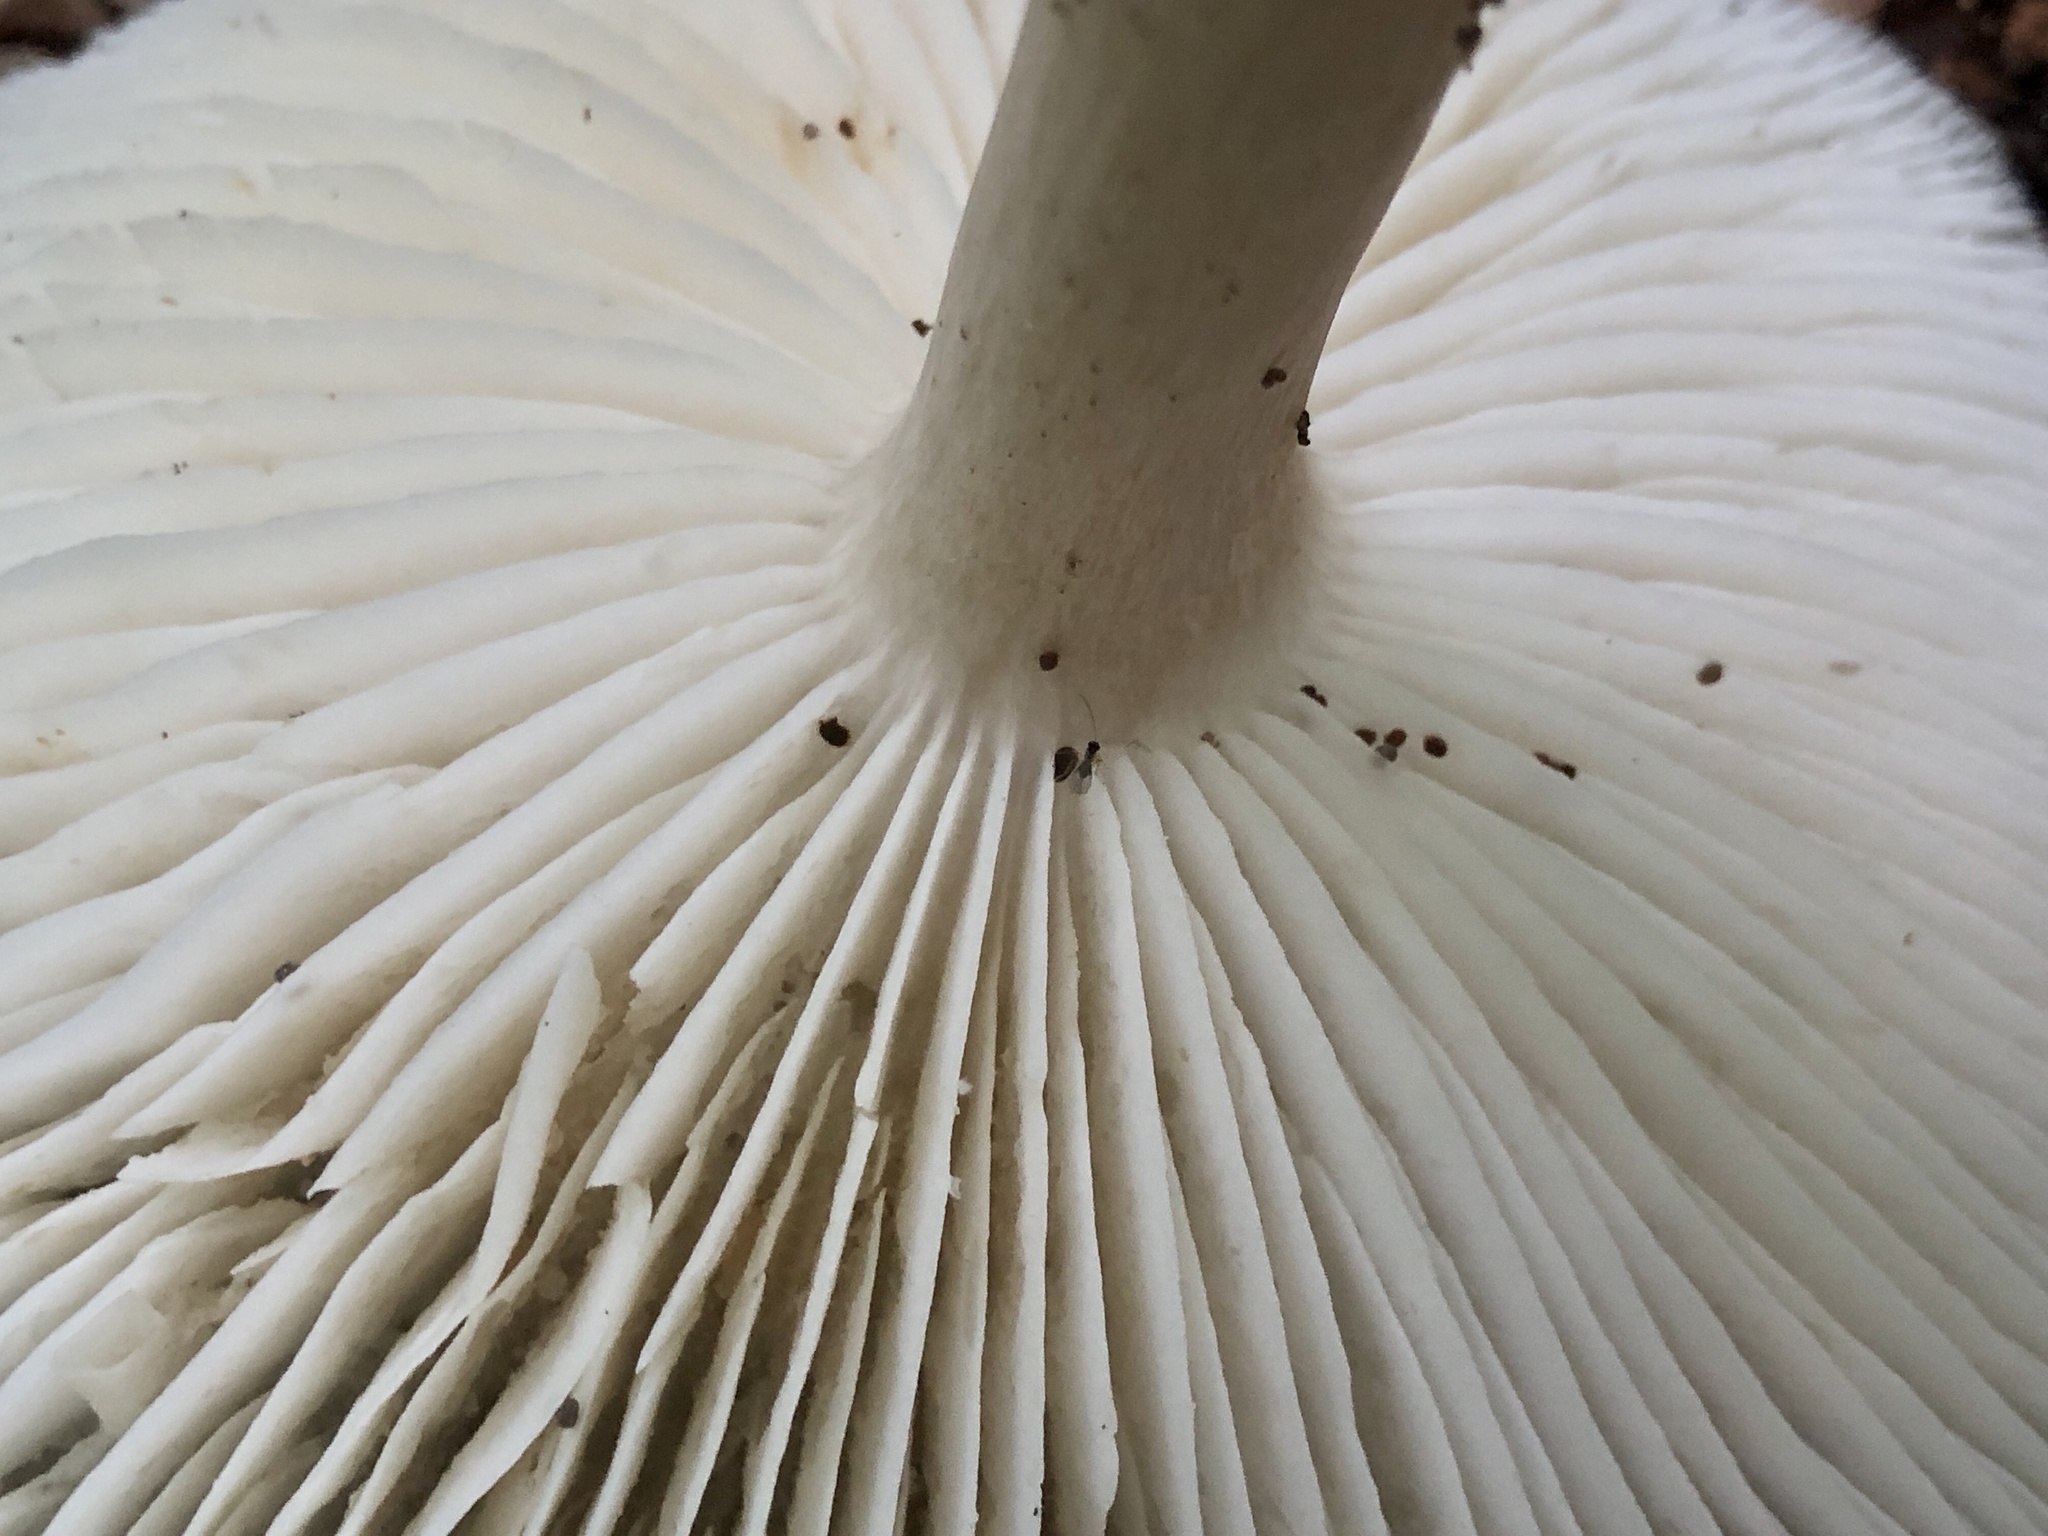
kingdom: Fungi
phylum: Basidiomycota
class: Agaricomycetes
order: Agaricales
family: Tricholomataceae
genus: Megacollybia
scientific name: Megacollybia rodmanii
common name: Eastern american platterful mushroom
